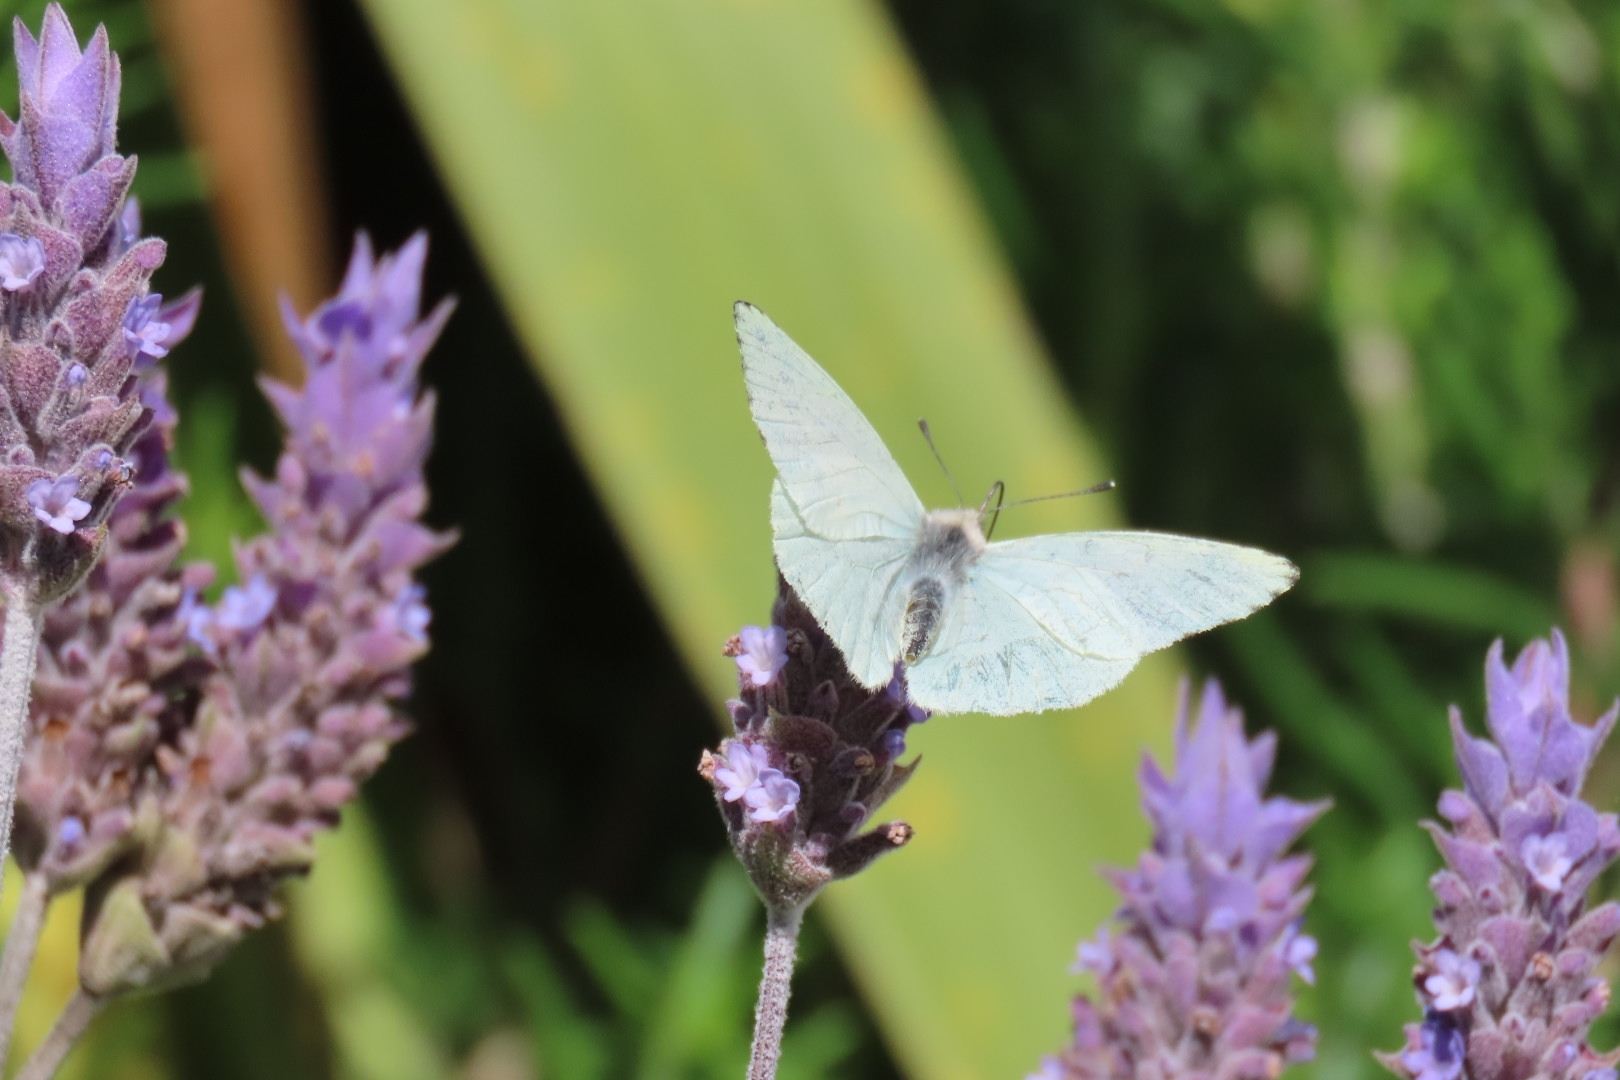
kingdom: Animalia
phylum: Arthropoda
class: Insecta
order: Lepidoptera
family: Pieridae
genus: Hesperocharis
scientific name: Hesperocharis paranensis
